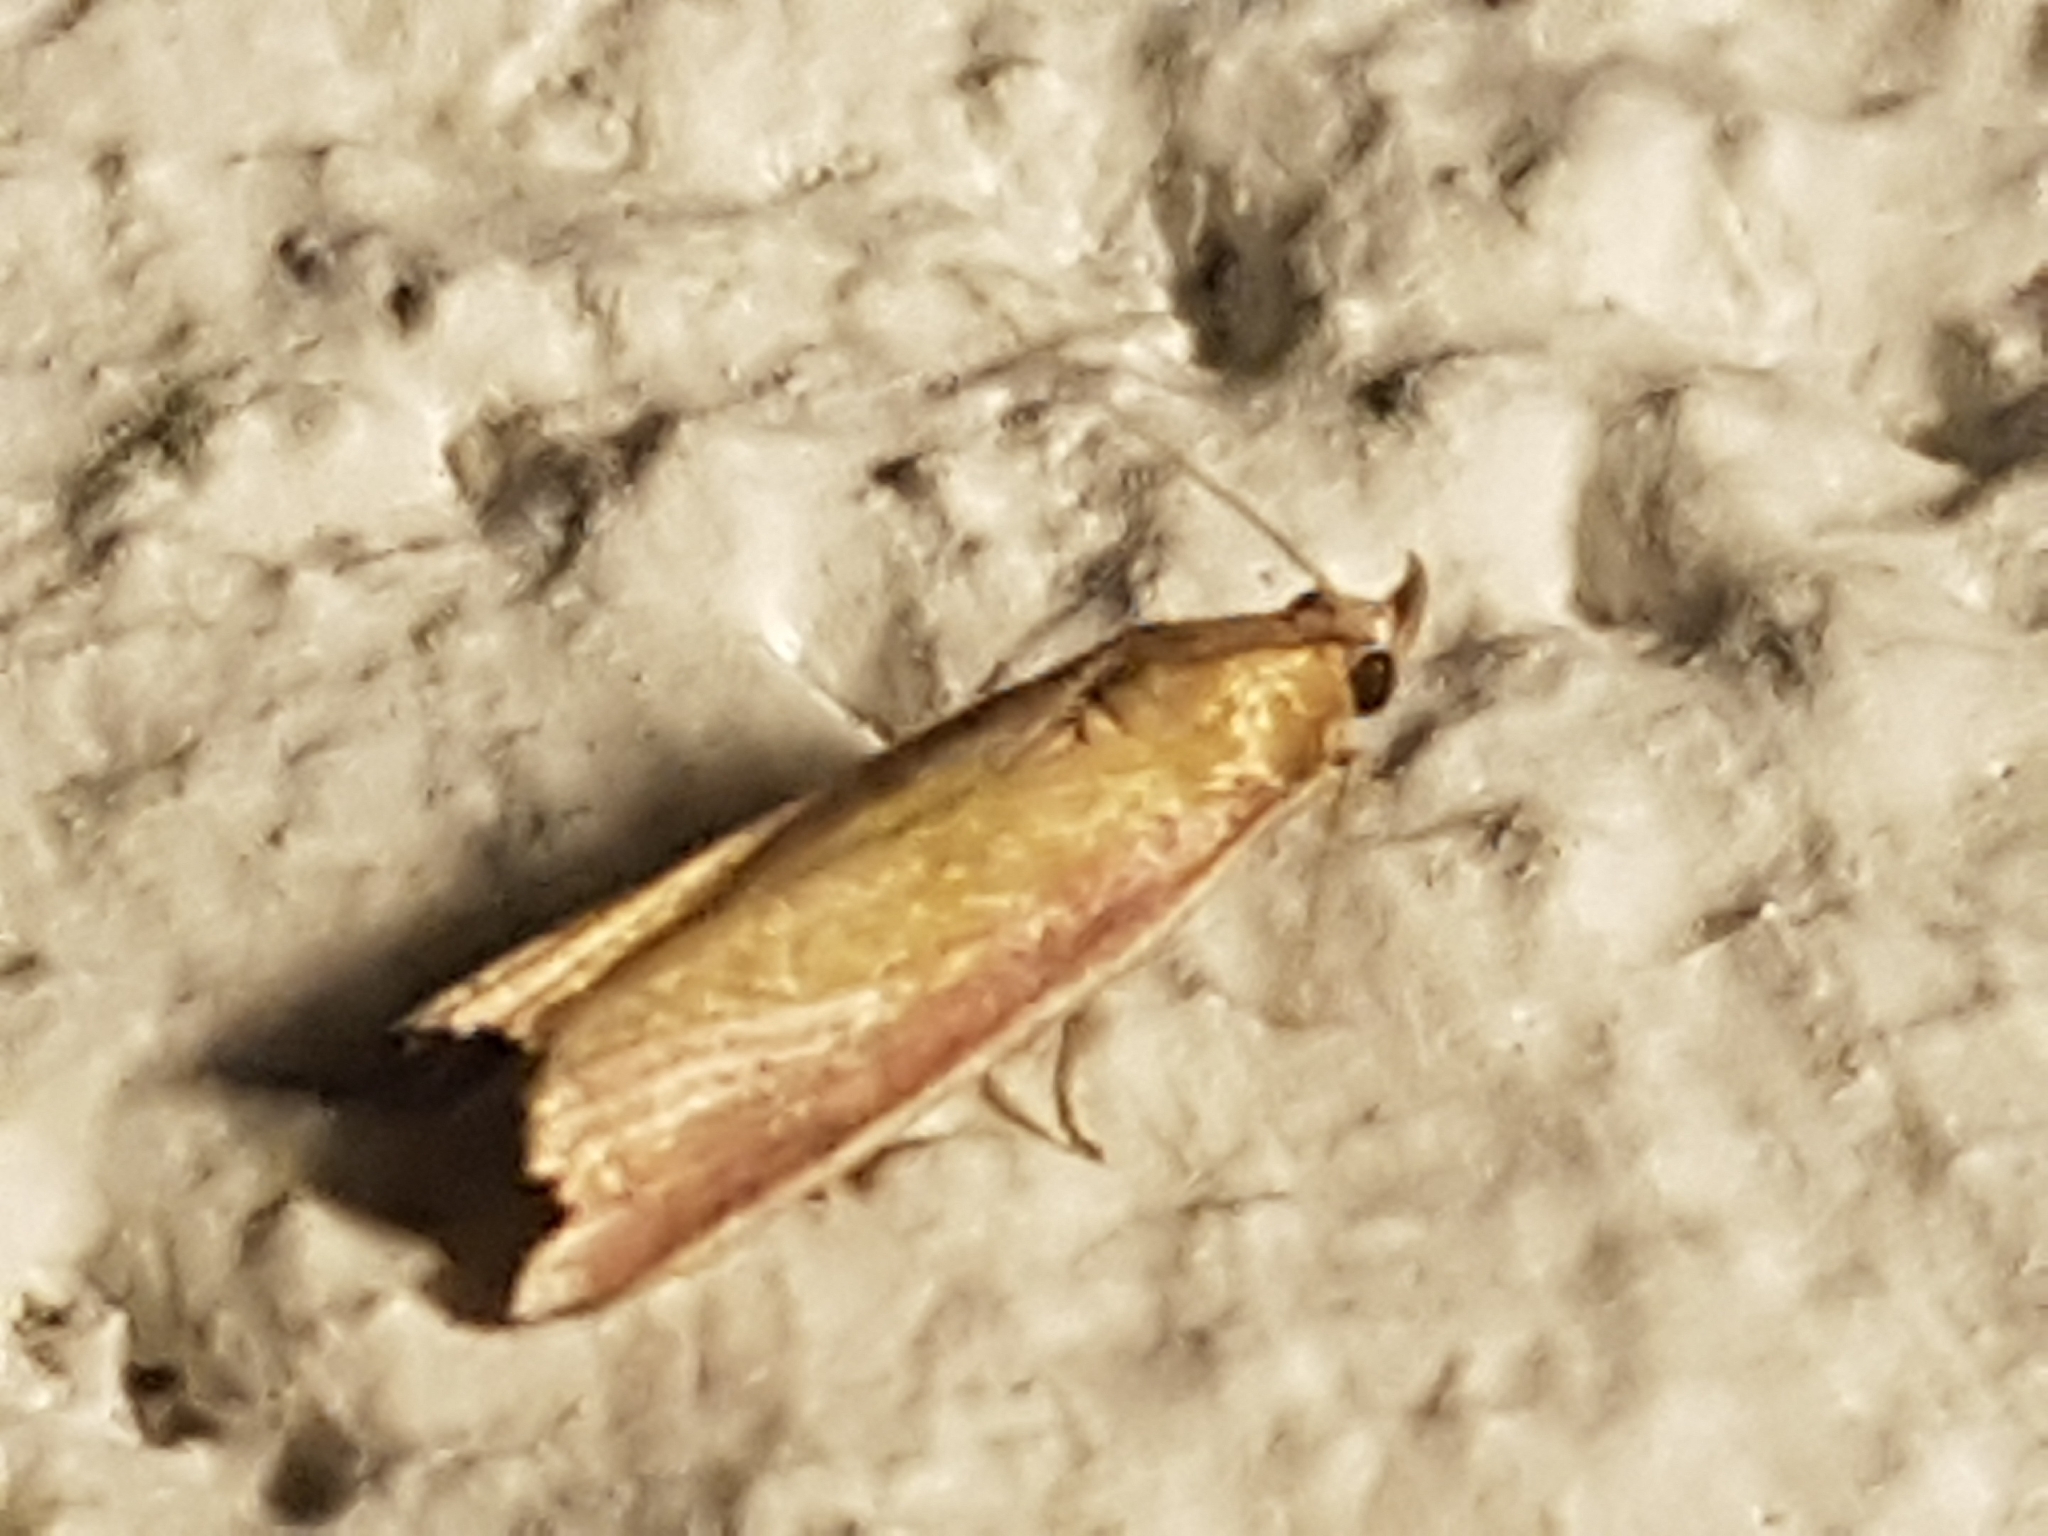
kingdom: Animalia
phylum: Arthropoda
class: Insecta
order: Lepidoptera
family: Pyralidae
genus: Oncocera
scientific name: Oncocera semirubella
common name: Rosy-striped knot-horn
